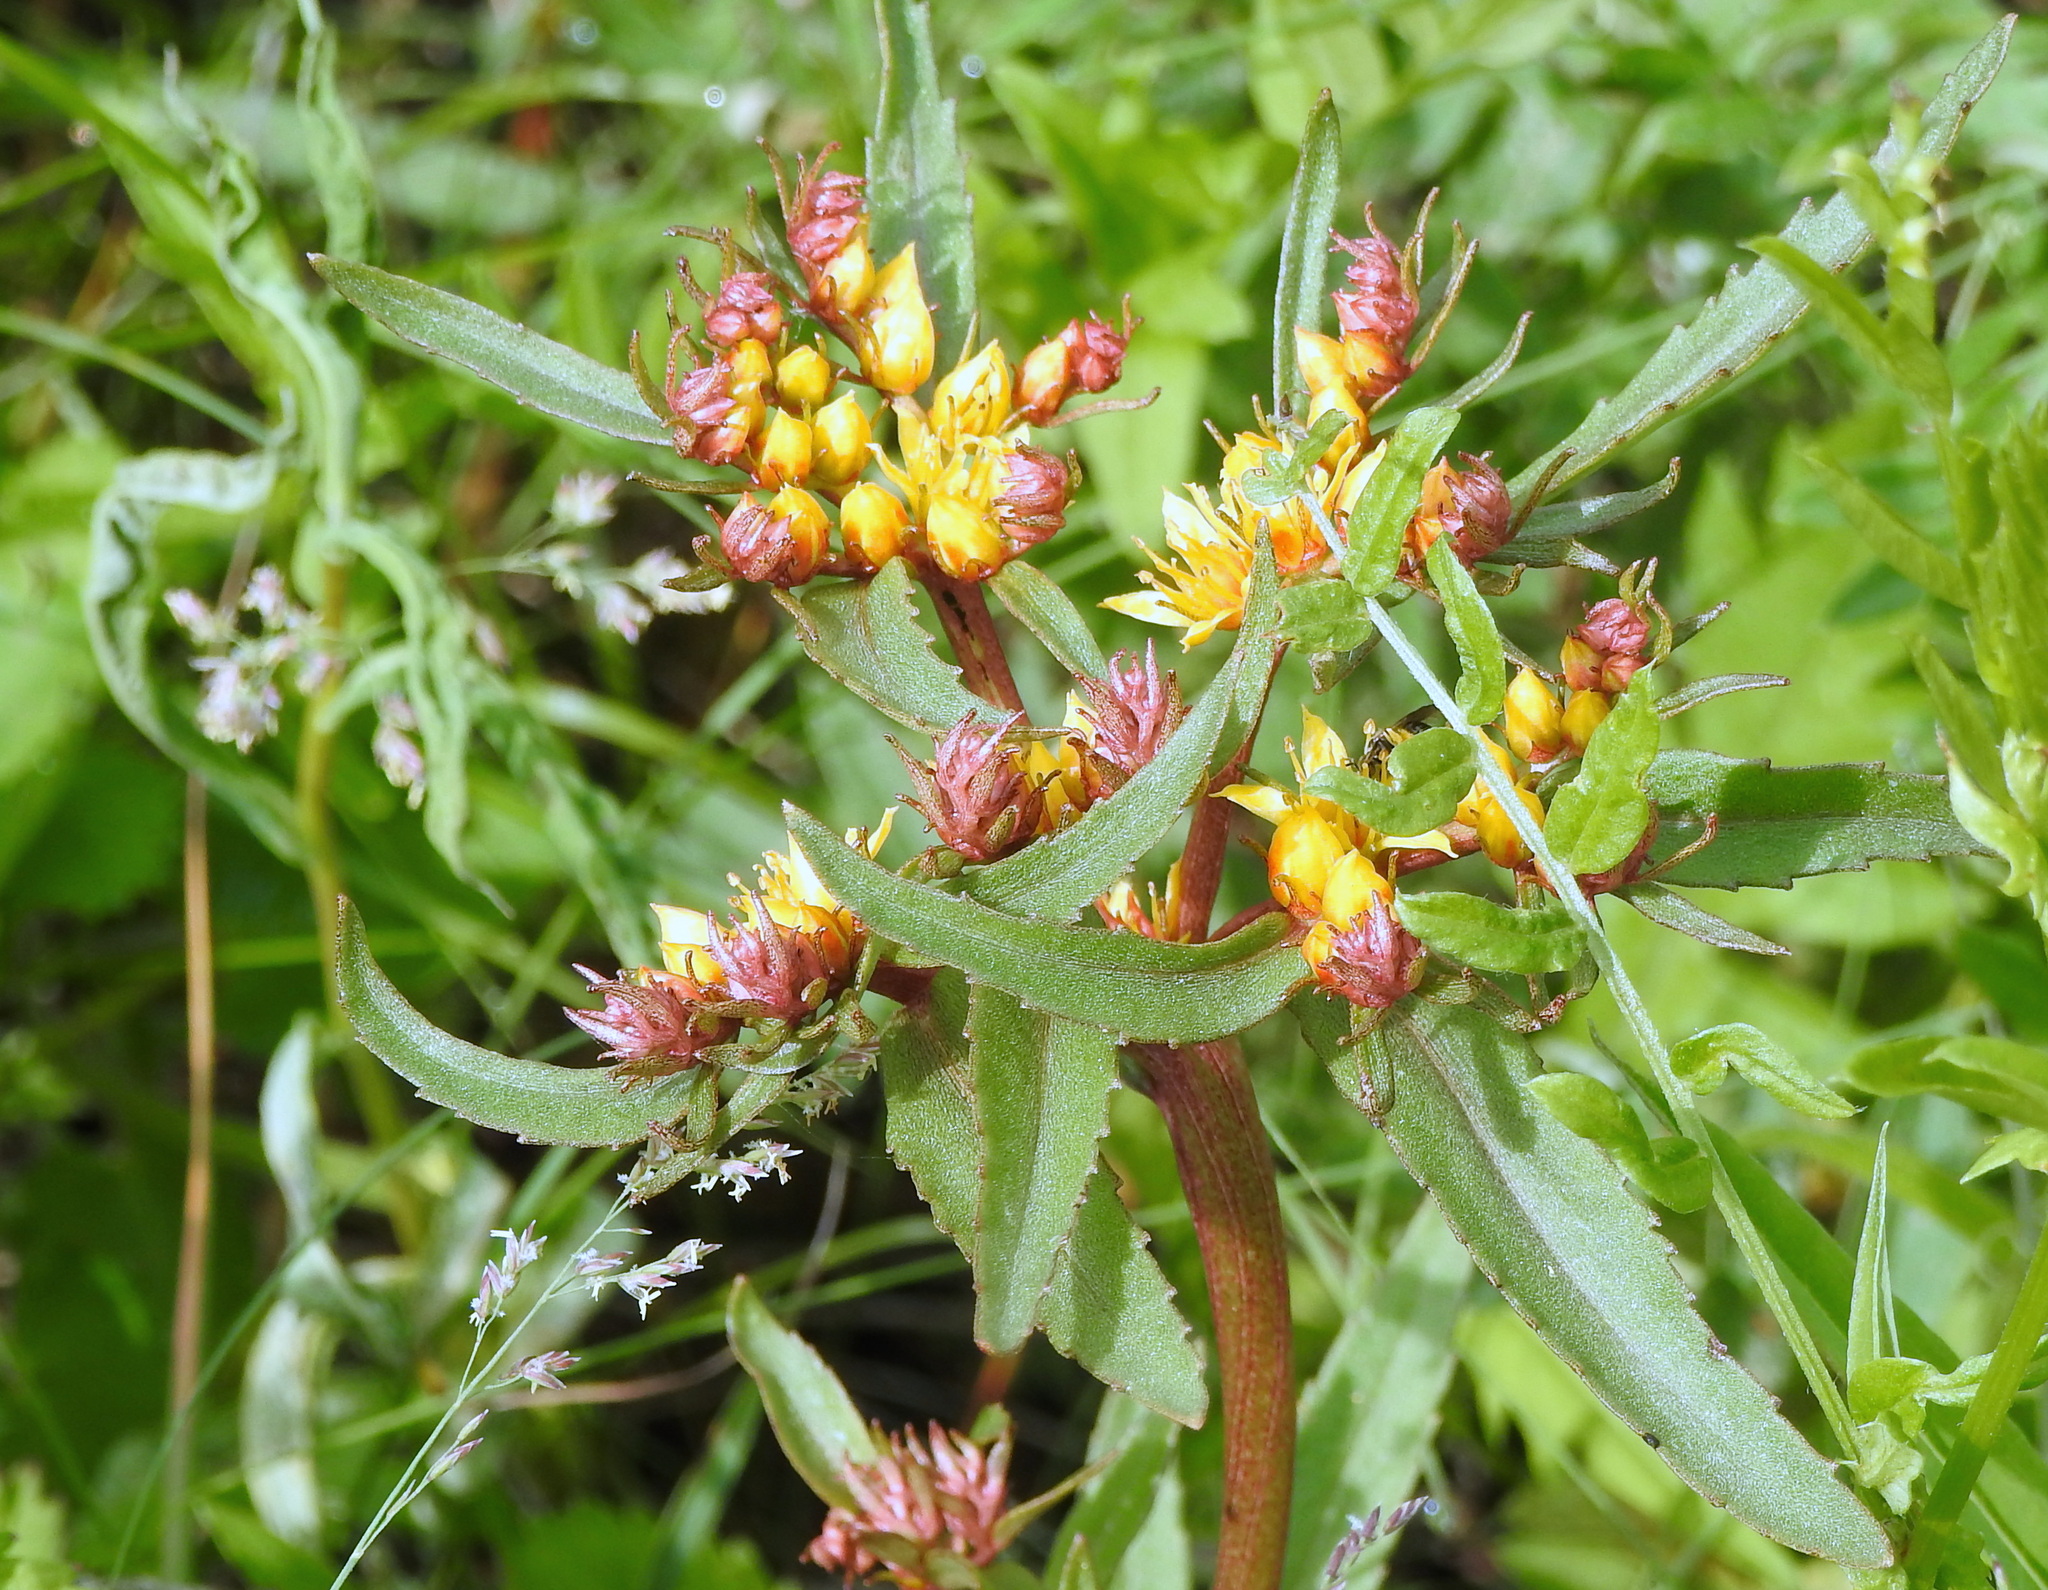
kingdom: Plantae
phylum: Tracheophyta
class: Magnoliopsida
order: Saxifragales
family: Crassulaceae
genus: Phedimus
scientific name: Phedimus aizoon
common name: Orpin aizoon
